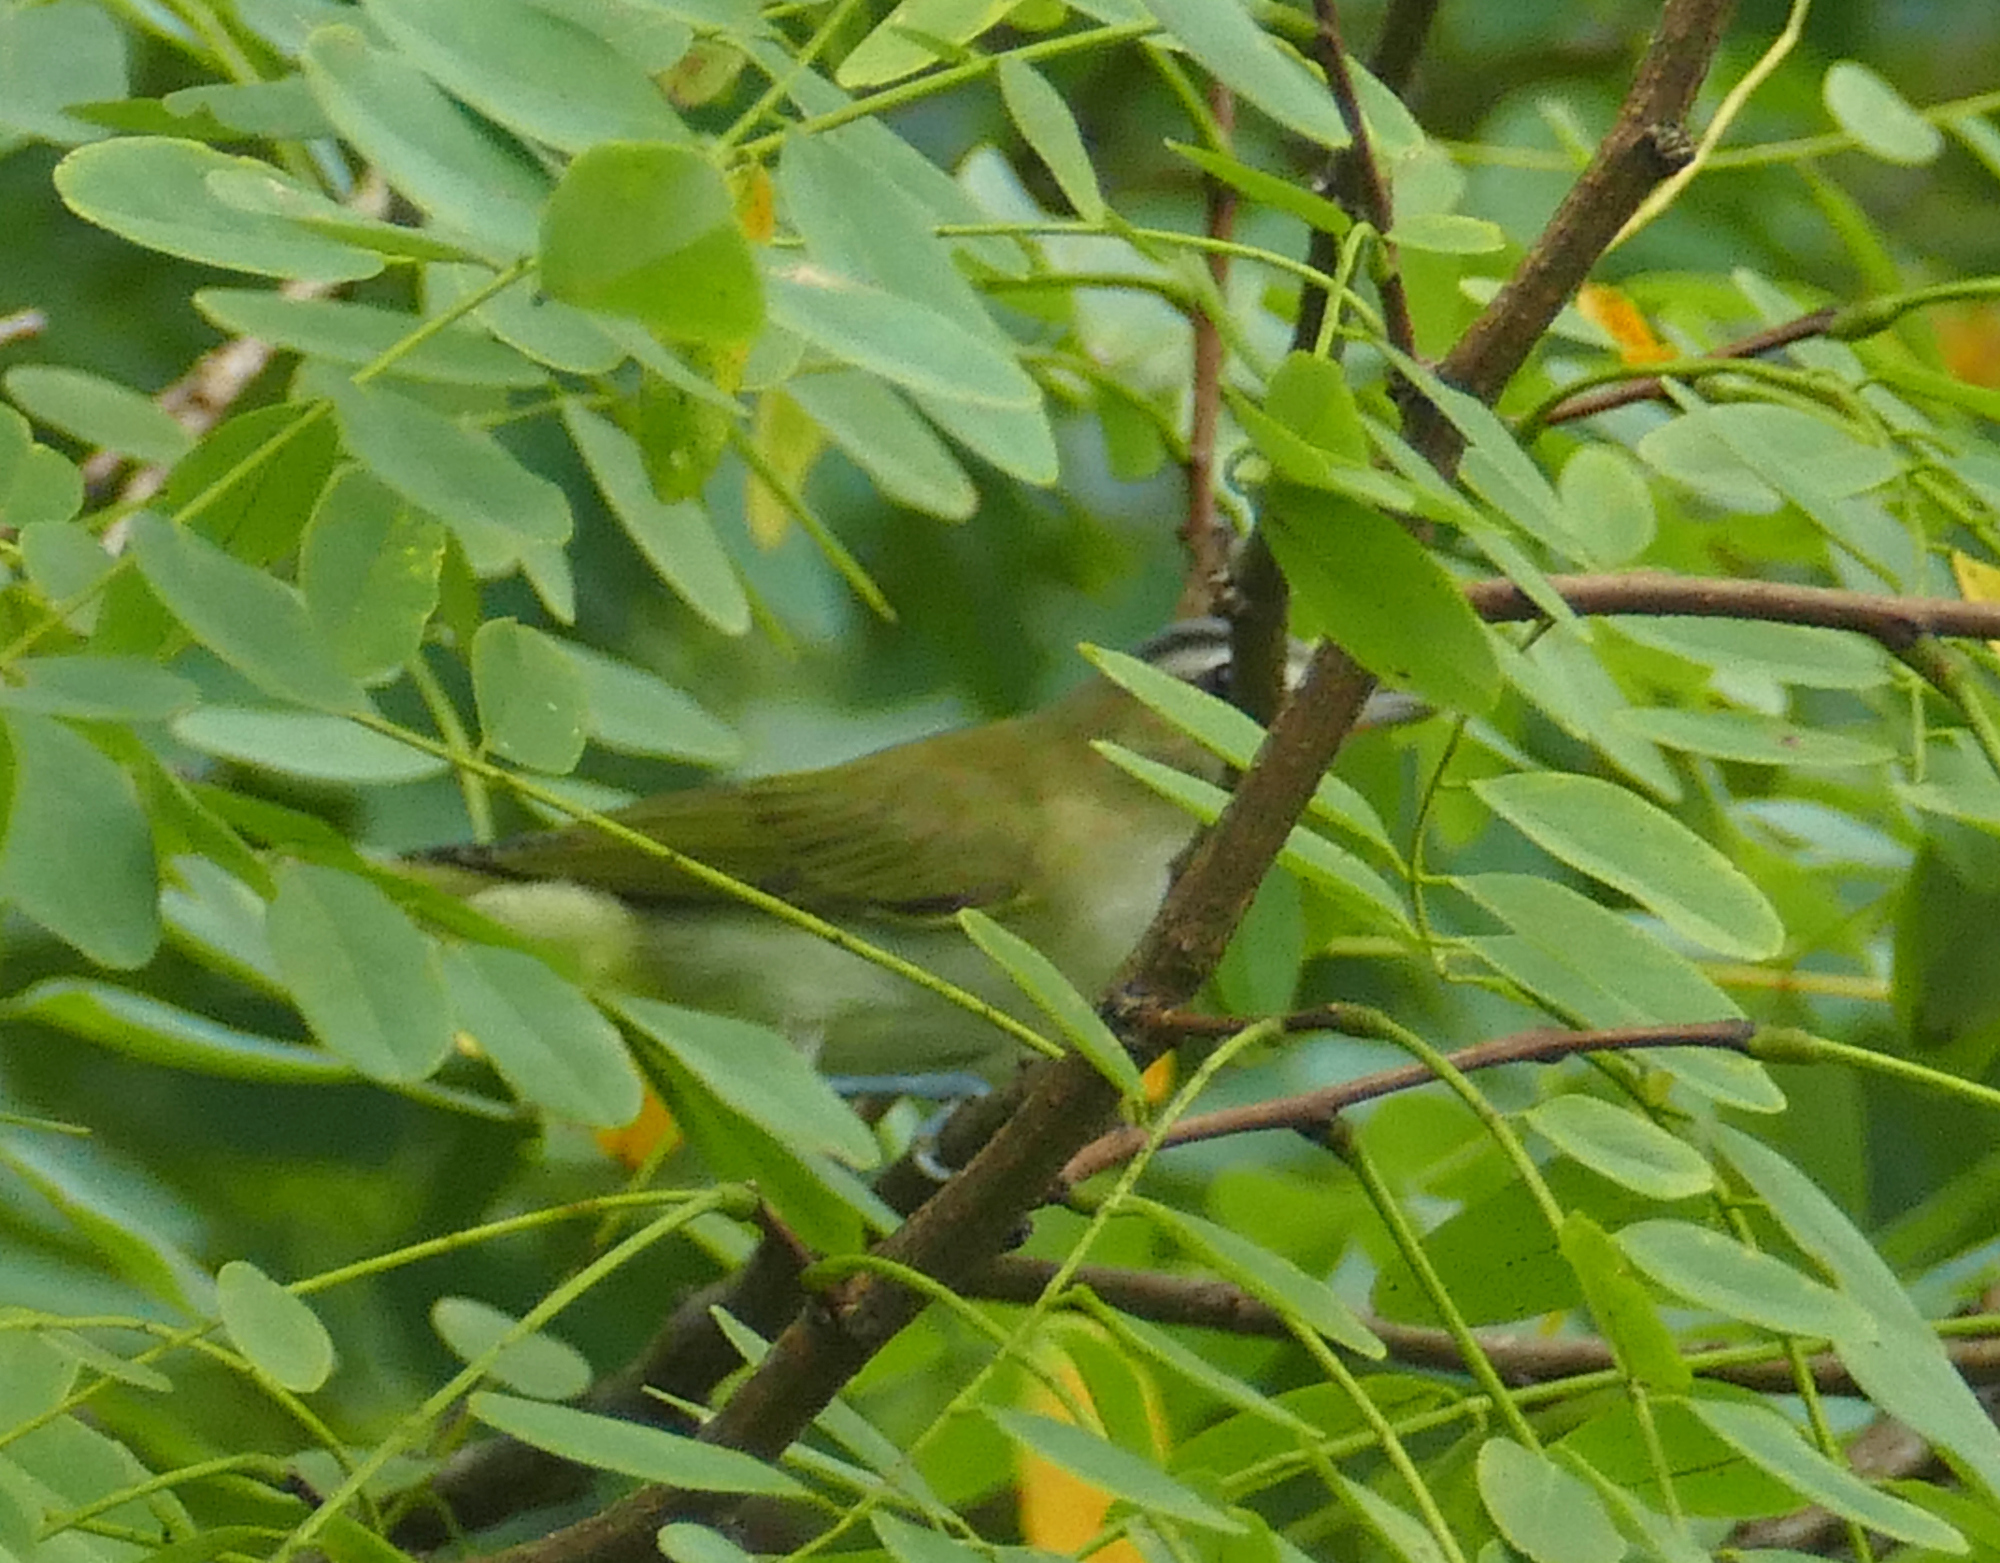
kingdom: Animalia
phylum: Chordata
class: Aves
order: Passeriformes
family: Vireonidae
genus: Vireo
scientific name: Vireo olivaceus
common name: Red-eyed vireo
